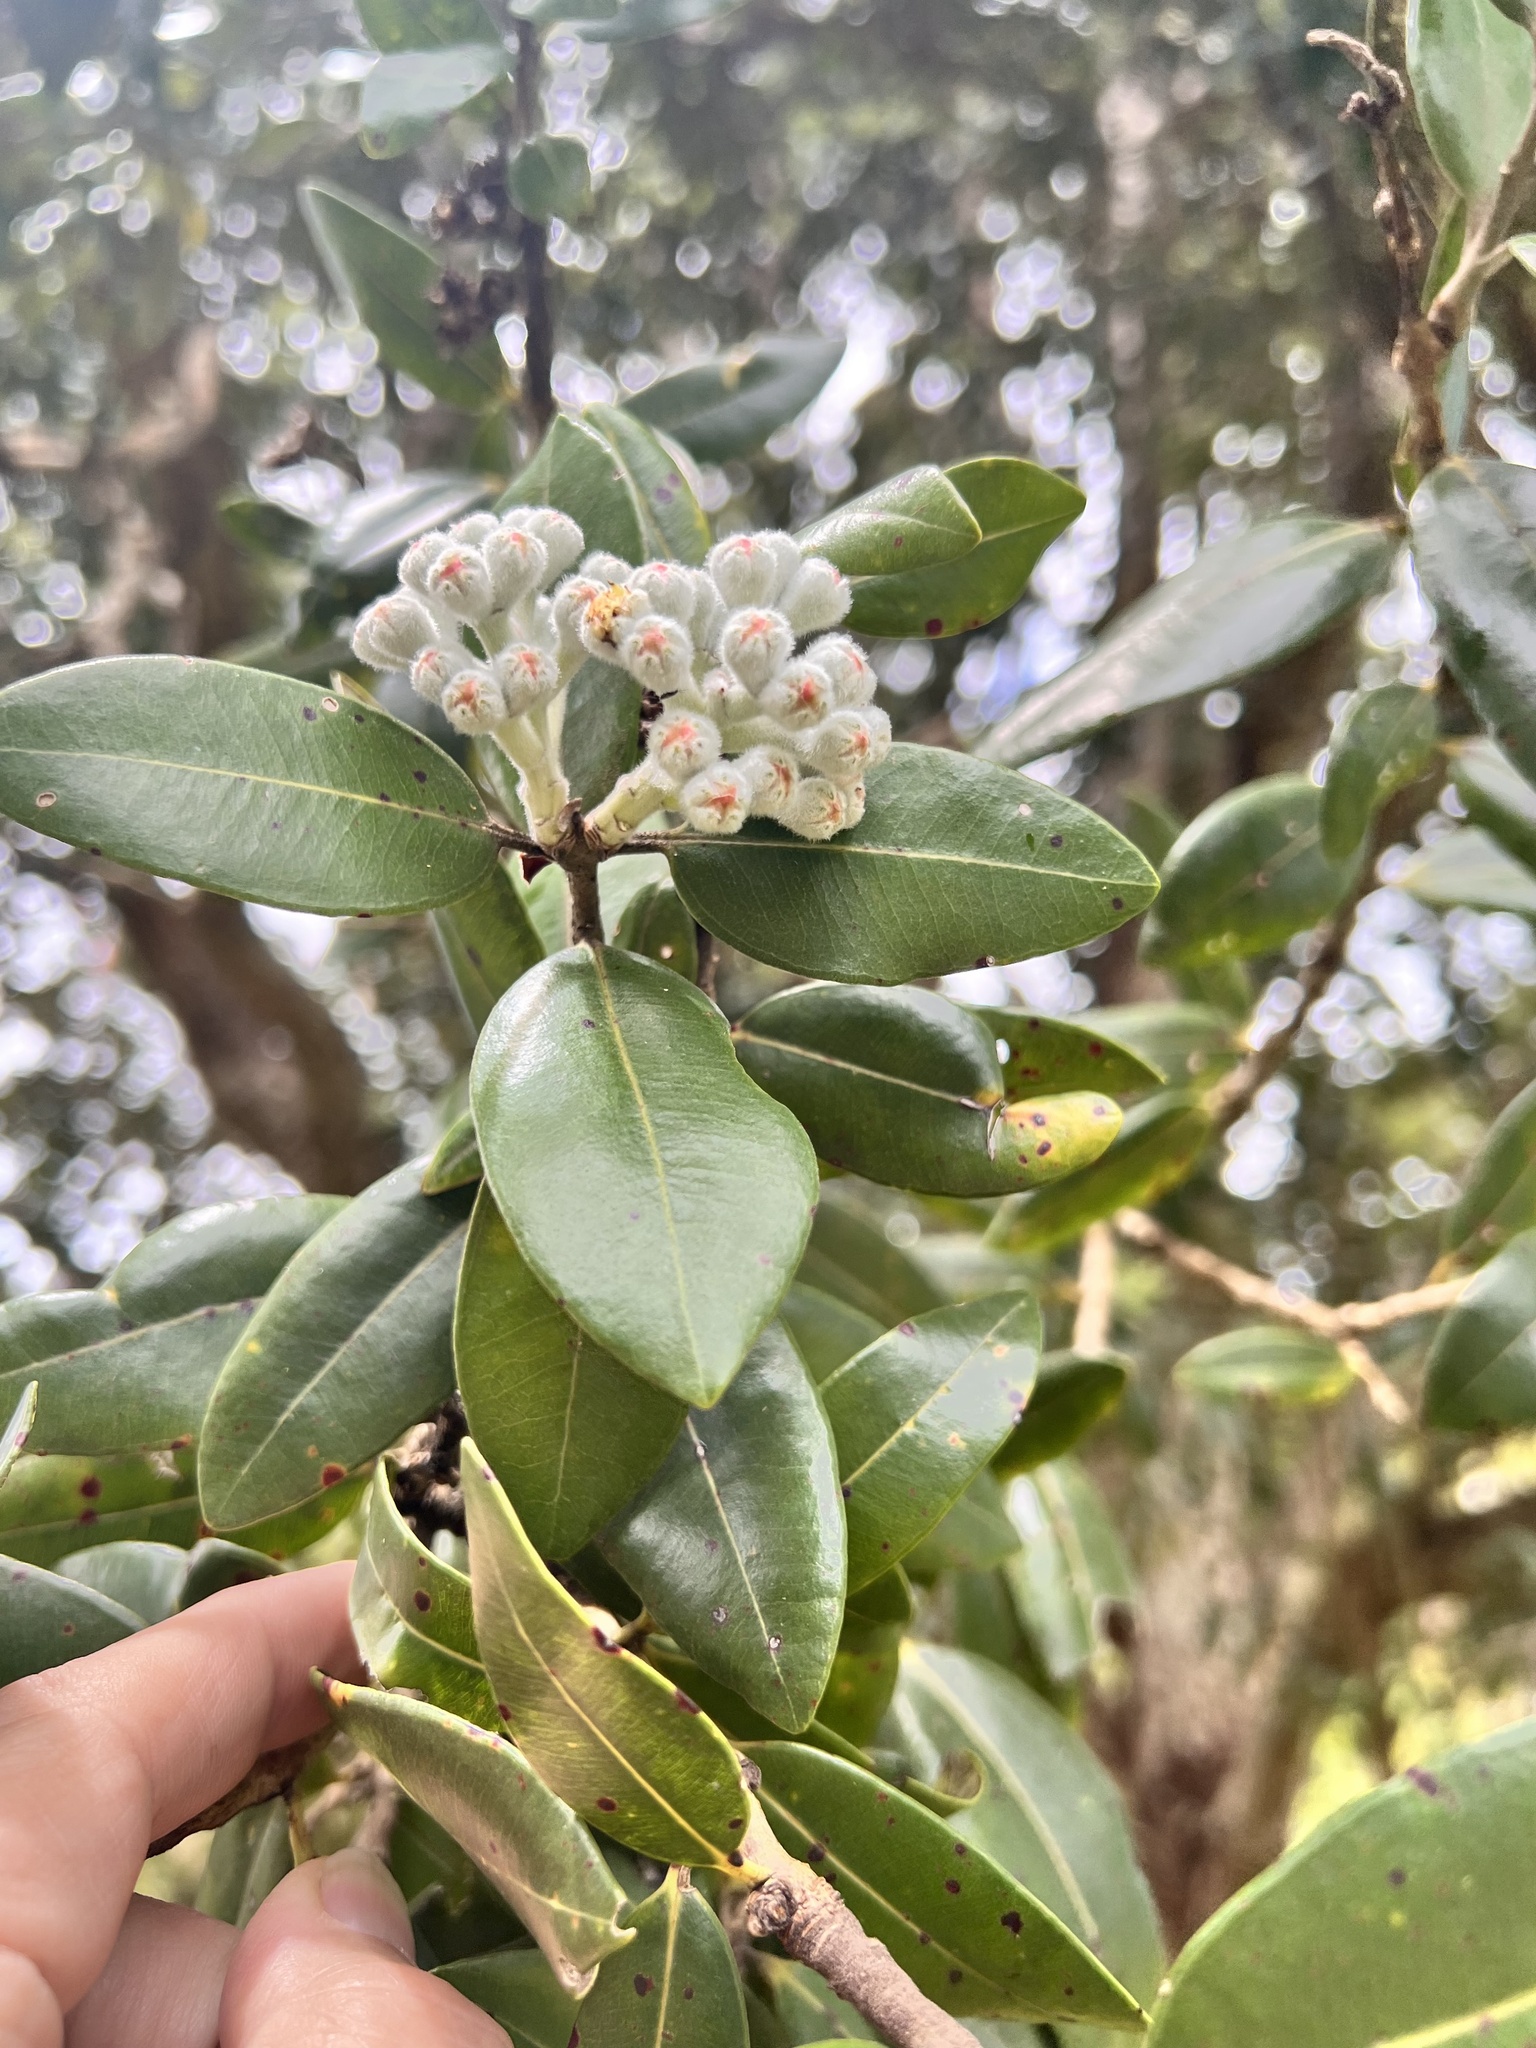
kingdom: Plantae
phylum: Tracheophyta
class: Magnoliopsida
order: Myrtales
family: Myrtaceae
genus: Metrosideros
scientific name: Metrosideros excelsa
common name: New zealand christmastree
